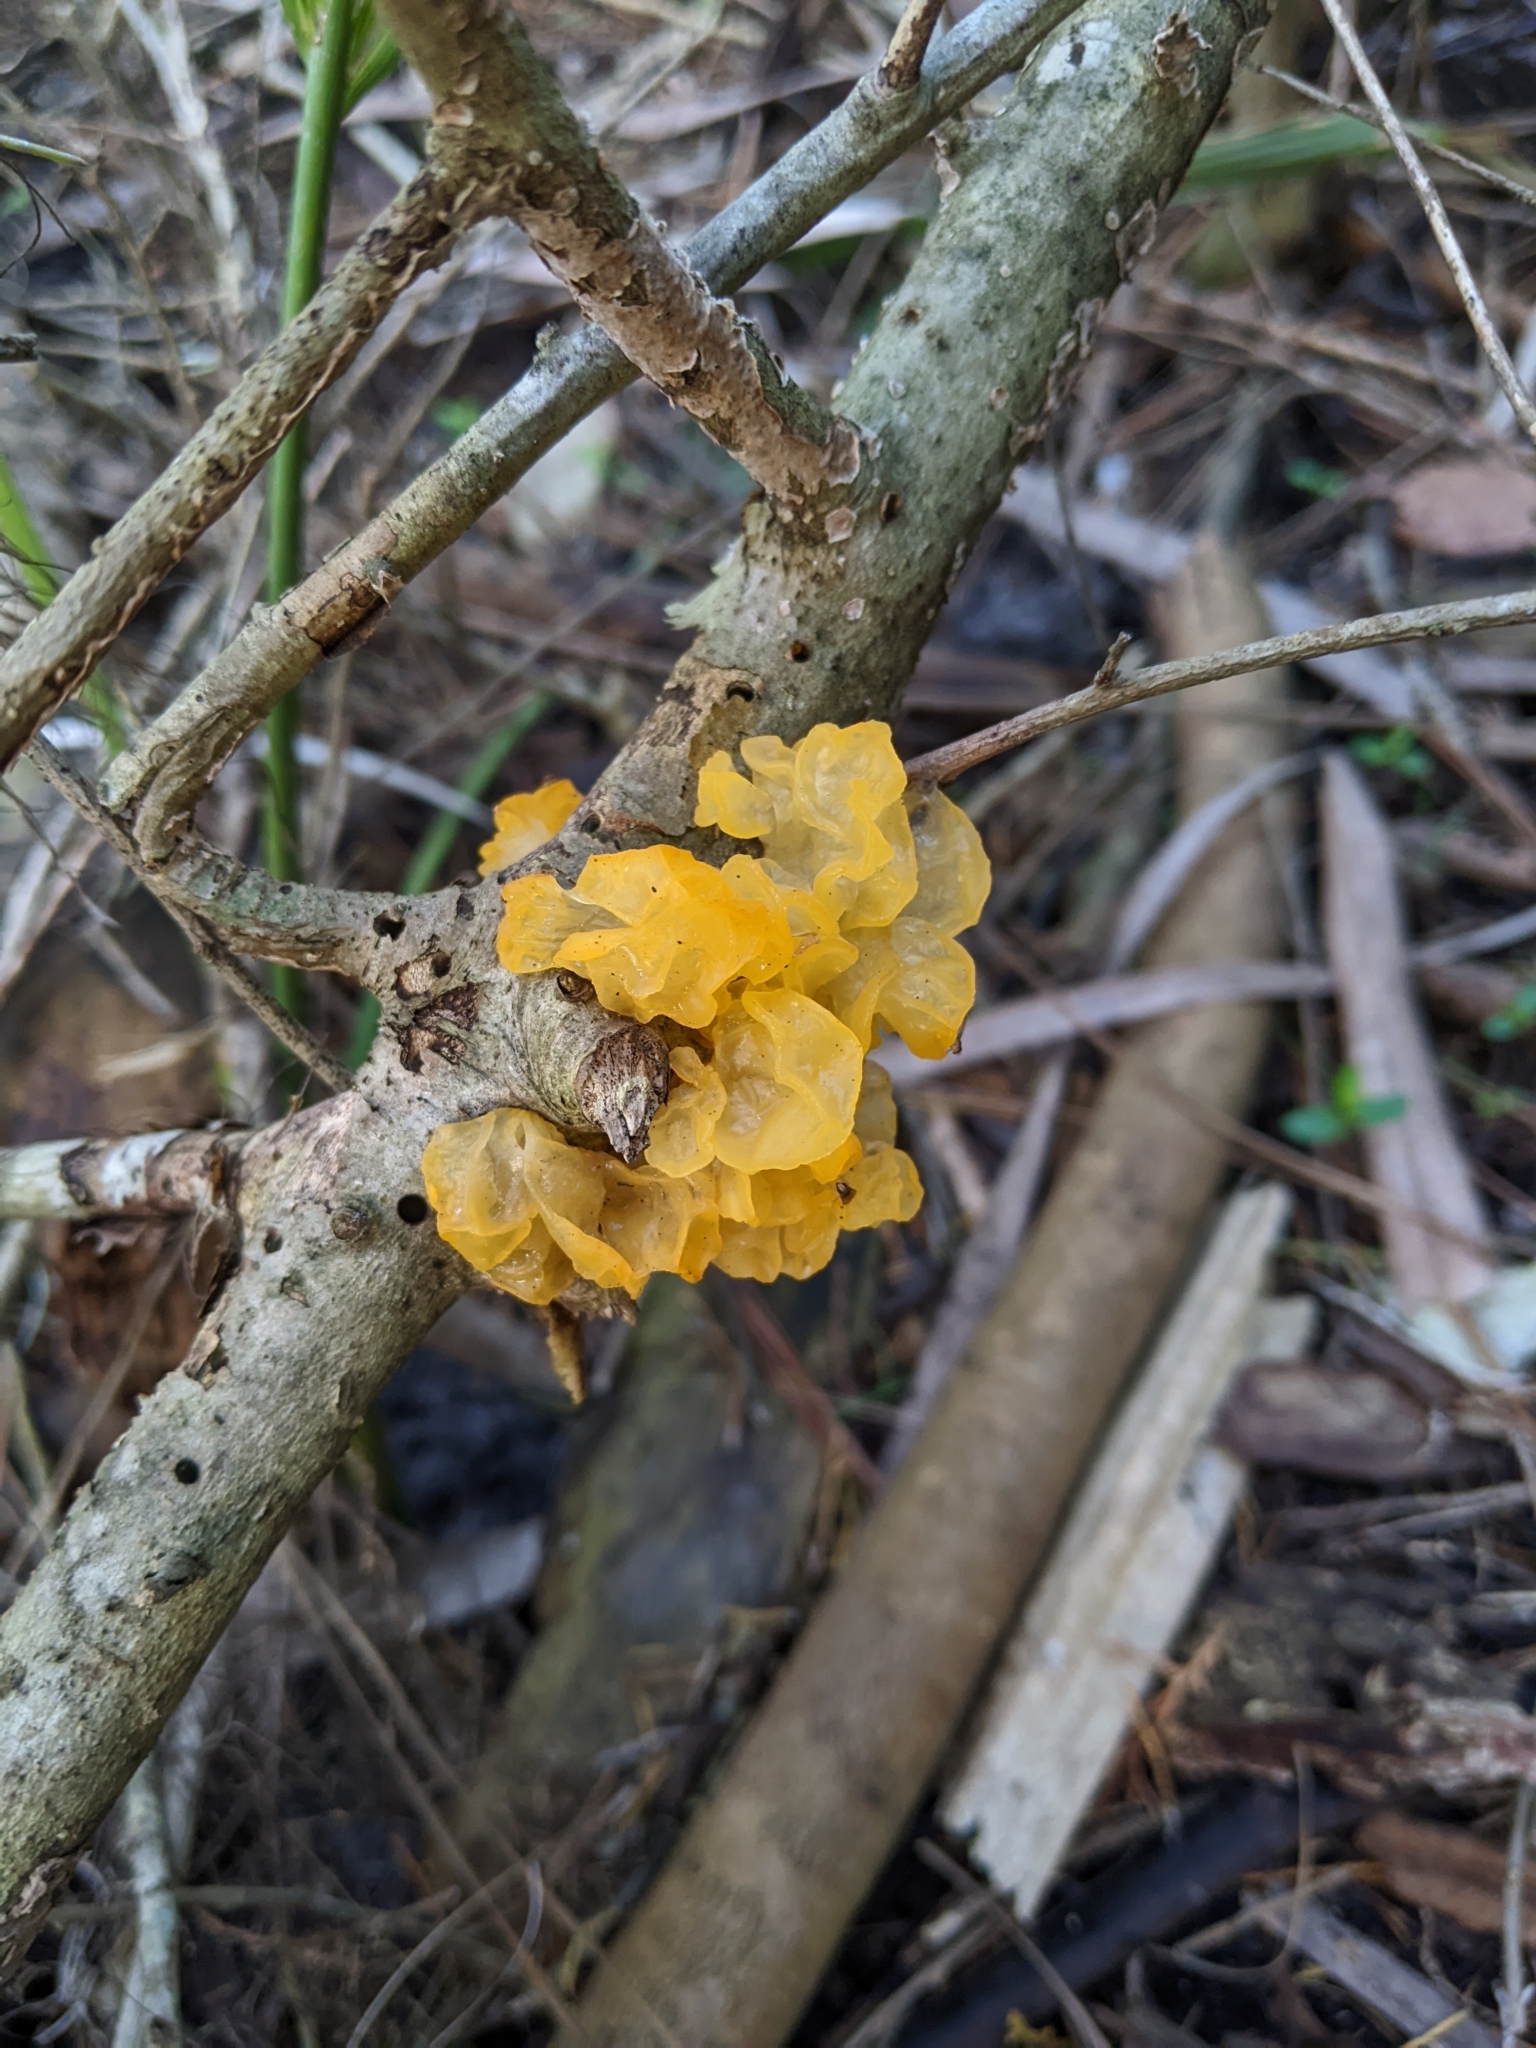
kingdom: Fungi
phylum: Basidiomycota
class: Tremellomycetes
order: Tremellales
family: Tremellaceae
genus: Tremella
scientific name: Tremella mesenterica
